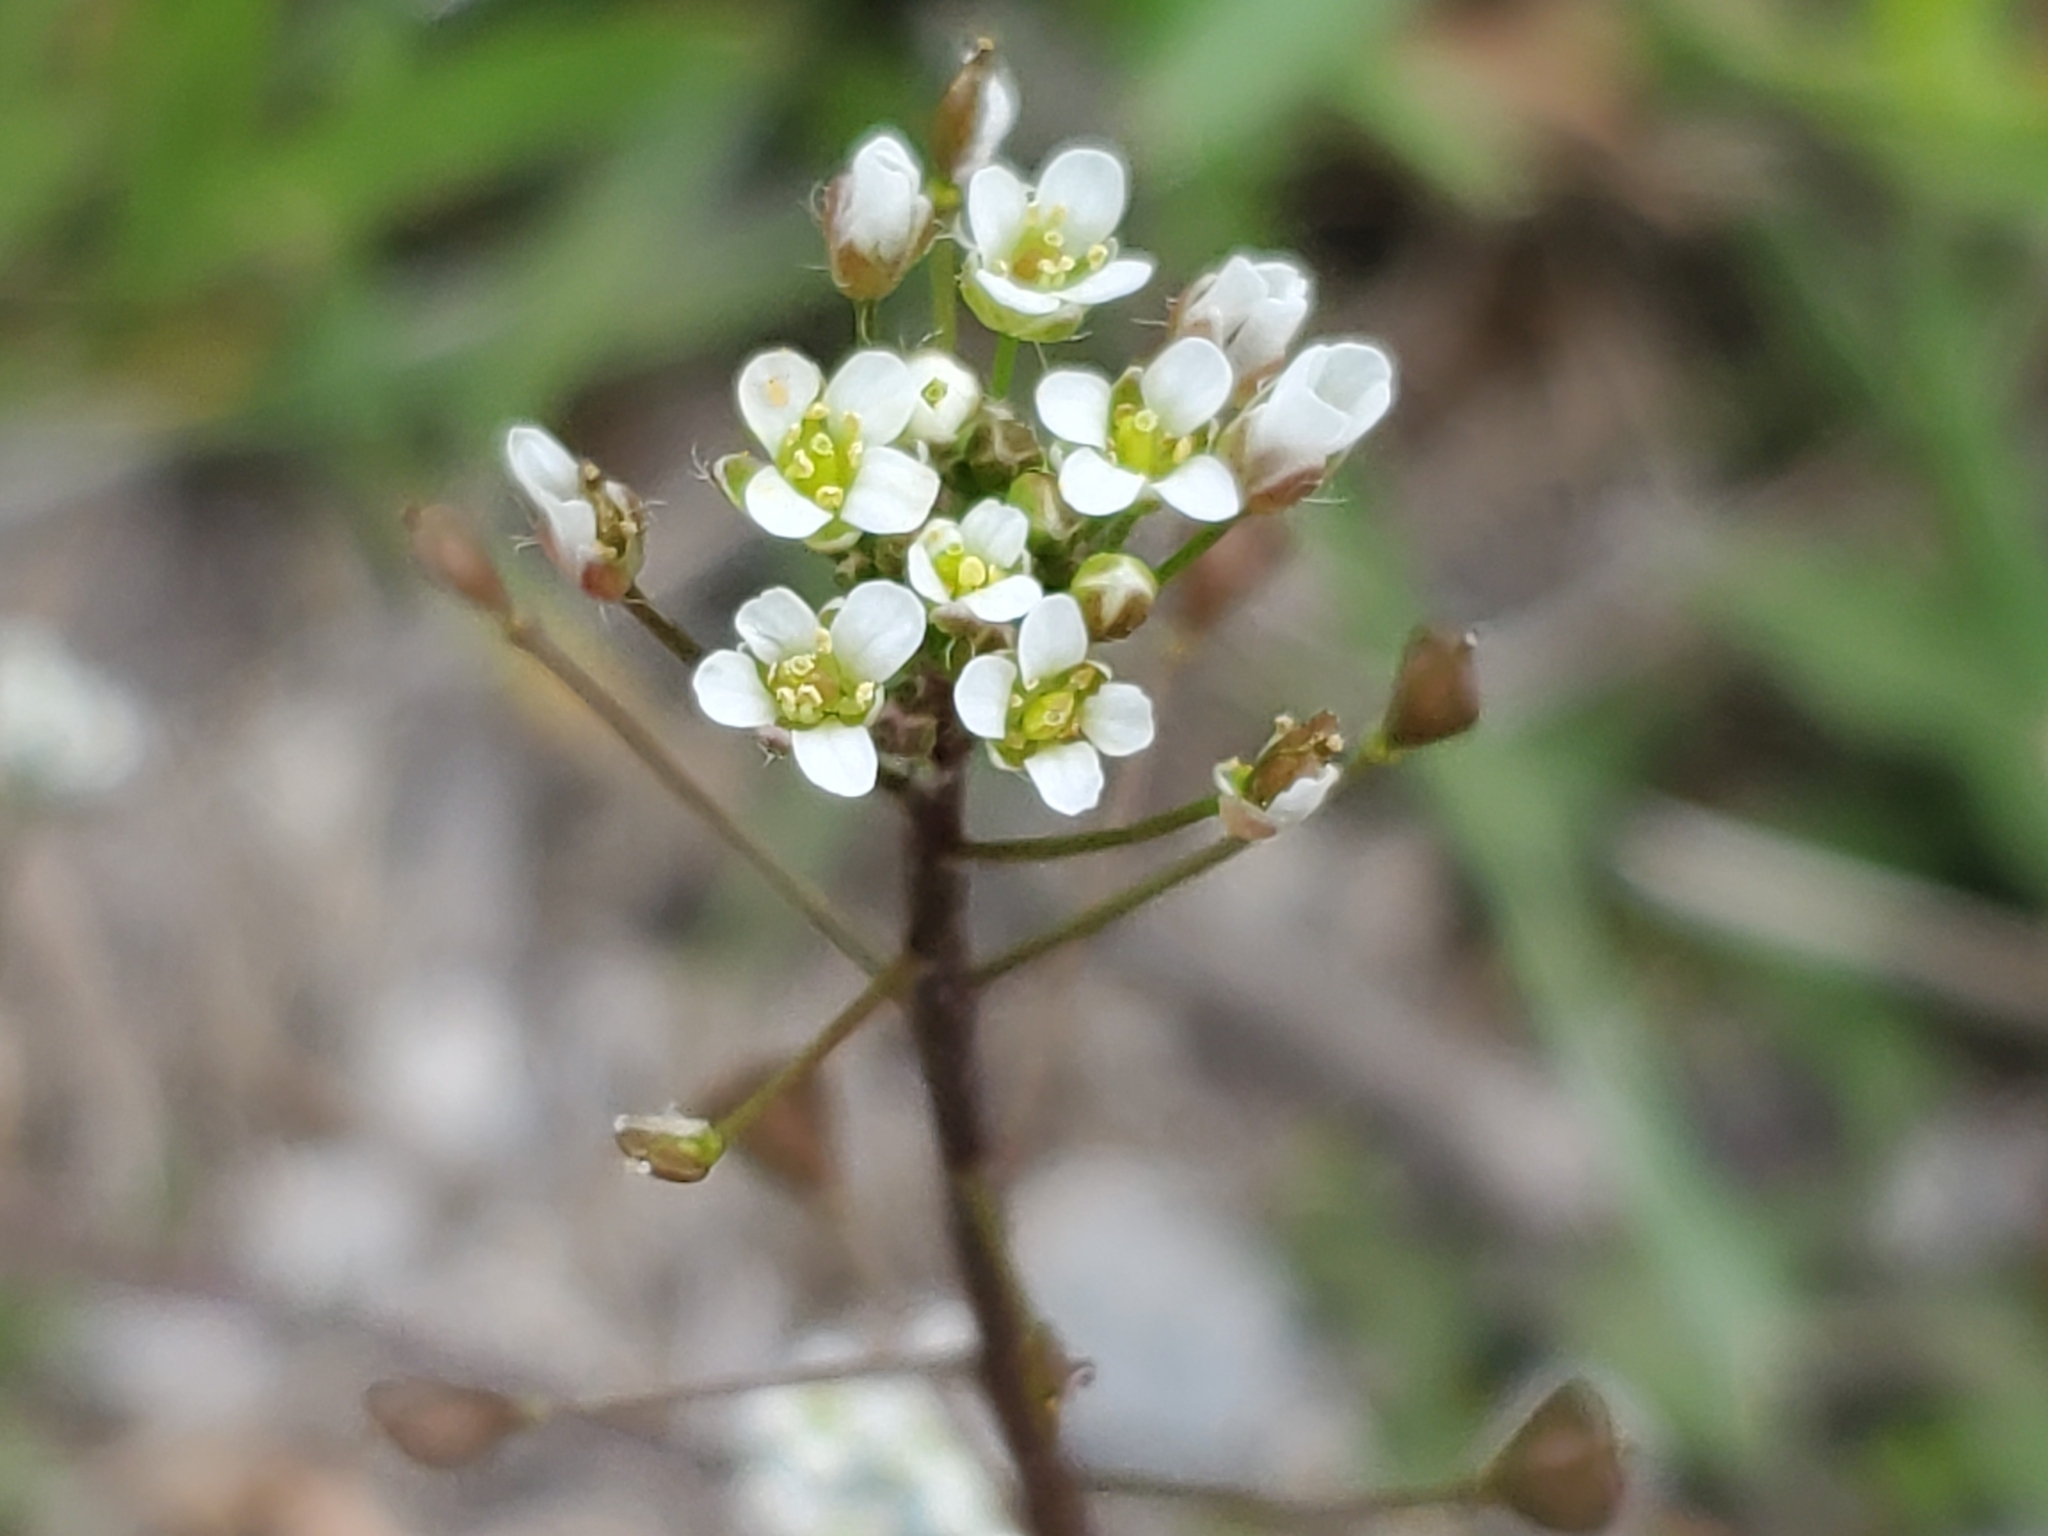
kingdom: Plantae
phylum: Tracheophyta
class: Magnoliopsida
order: Brassicales
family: Brassicaceae
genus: Capsella
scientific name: Capsella bursa-pastoris
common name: Shepherd's purse
